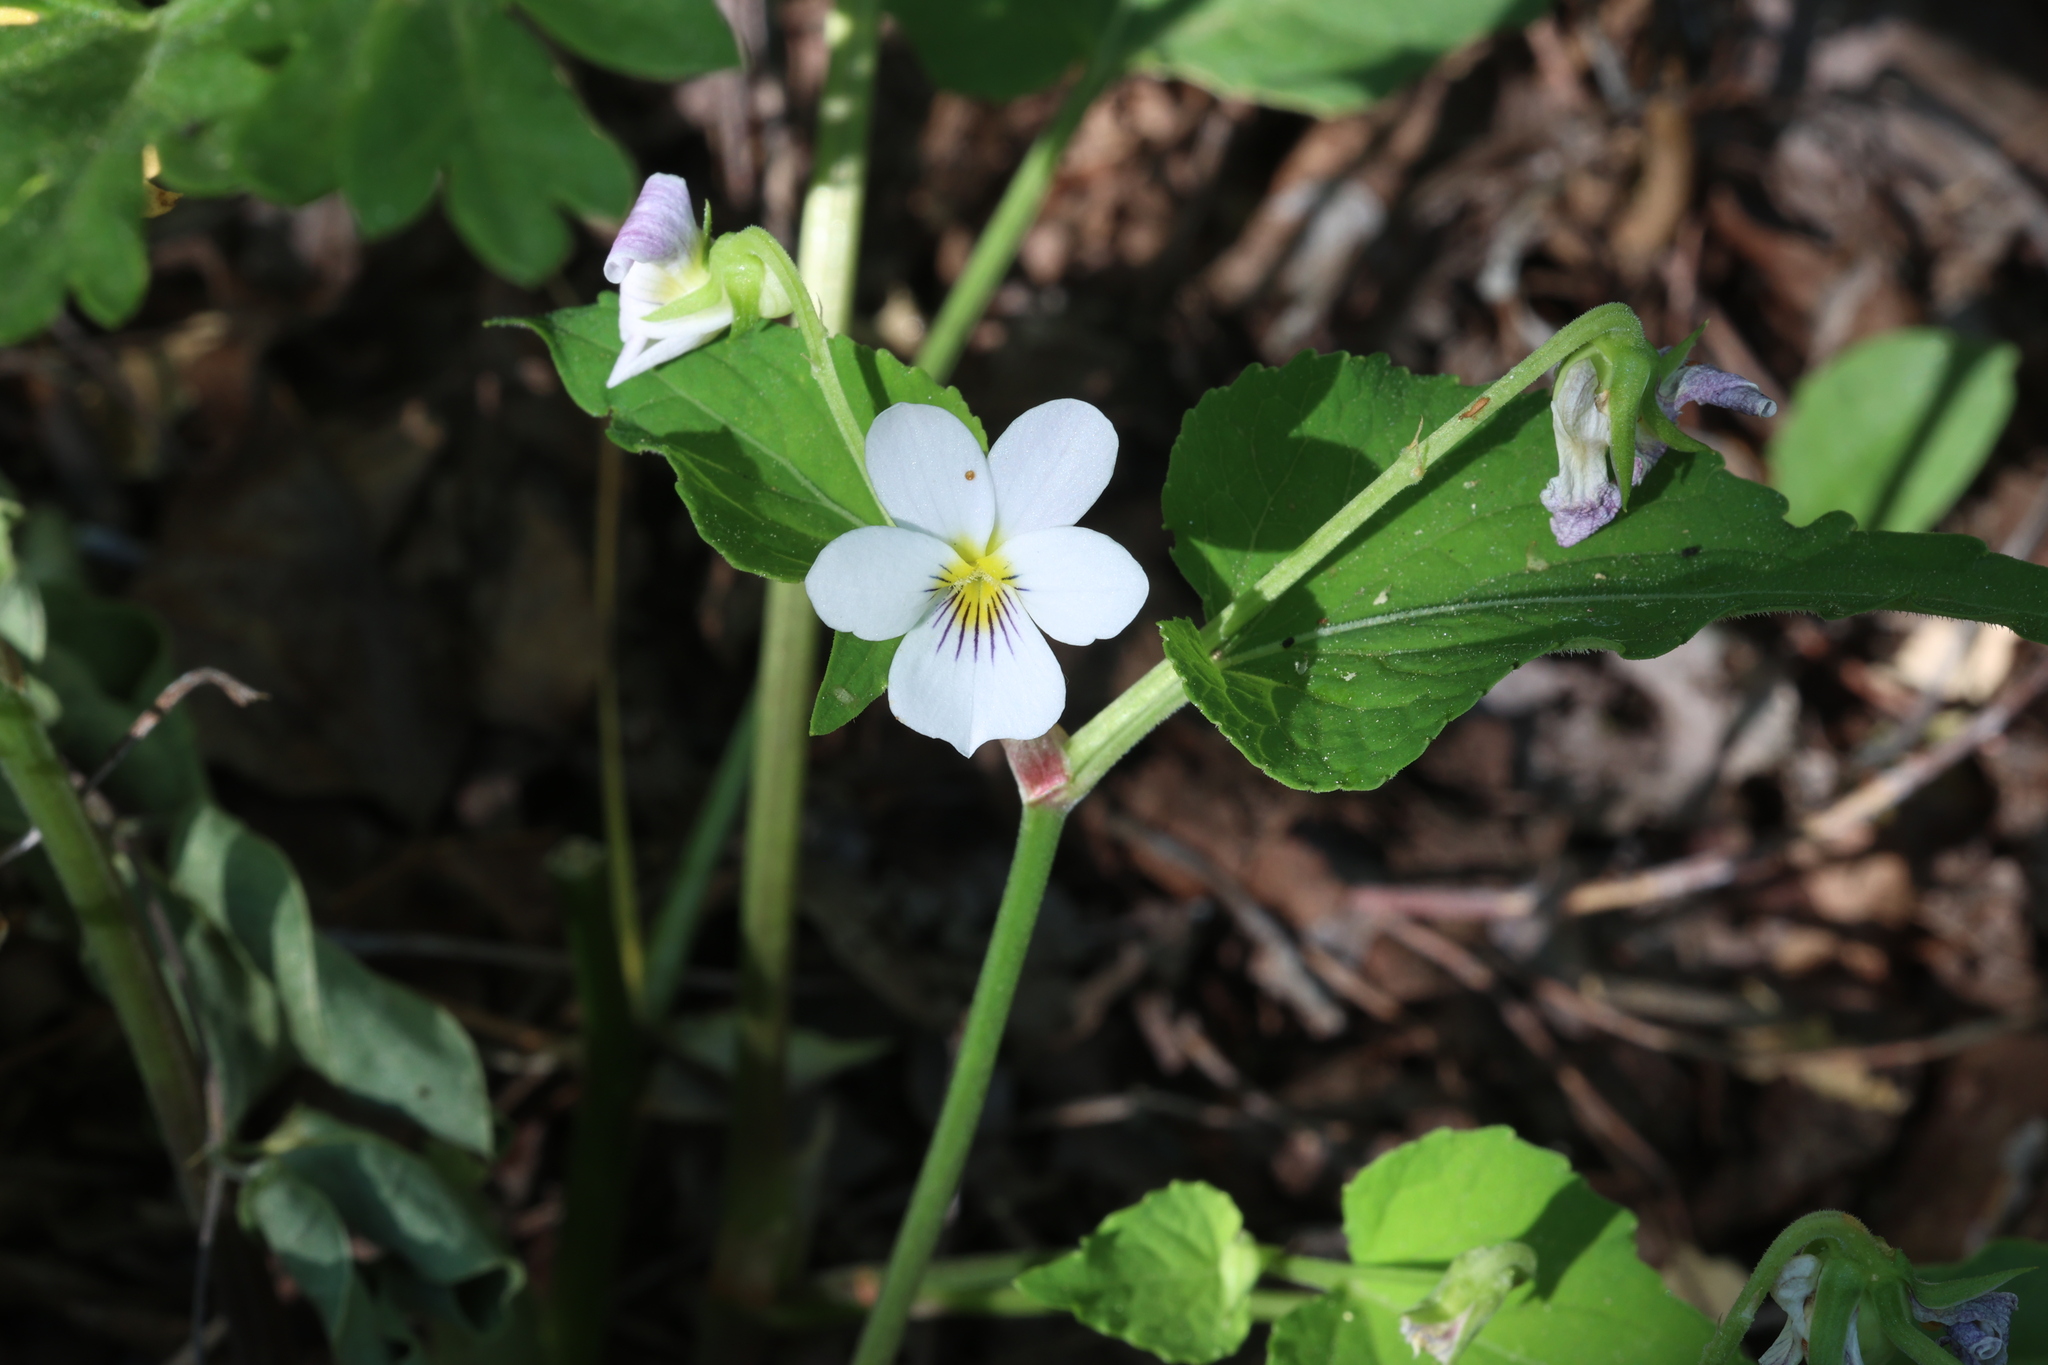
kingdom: Plantae
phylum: Tracheophyta
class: Magnoliopsida
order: Malpighiales
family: Violaceae
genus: Viola
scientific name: Viola canadensis
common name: Canada violet
